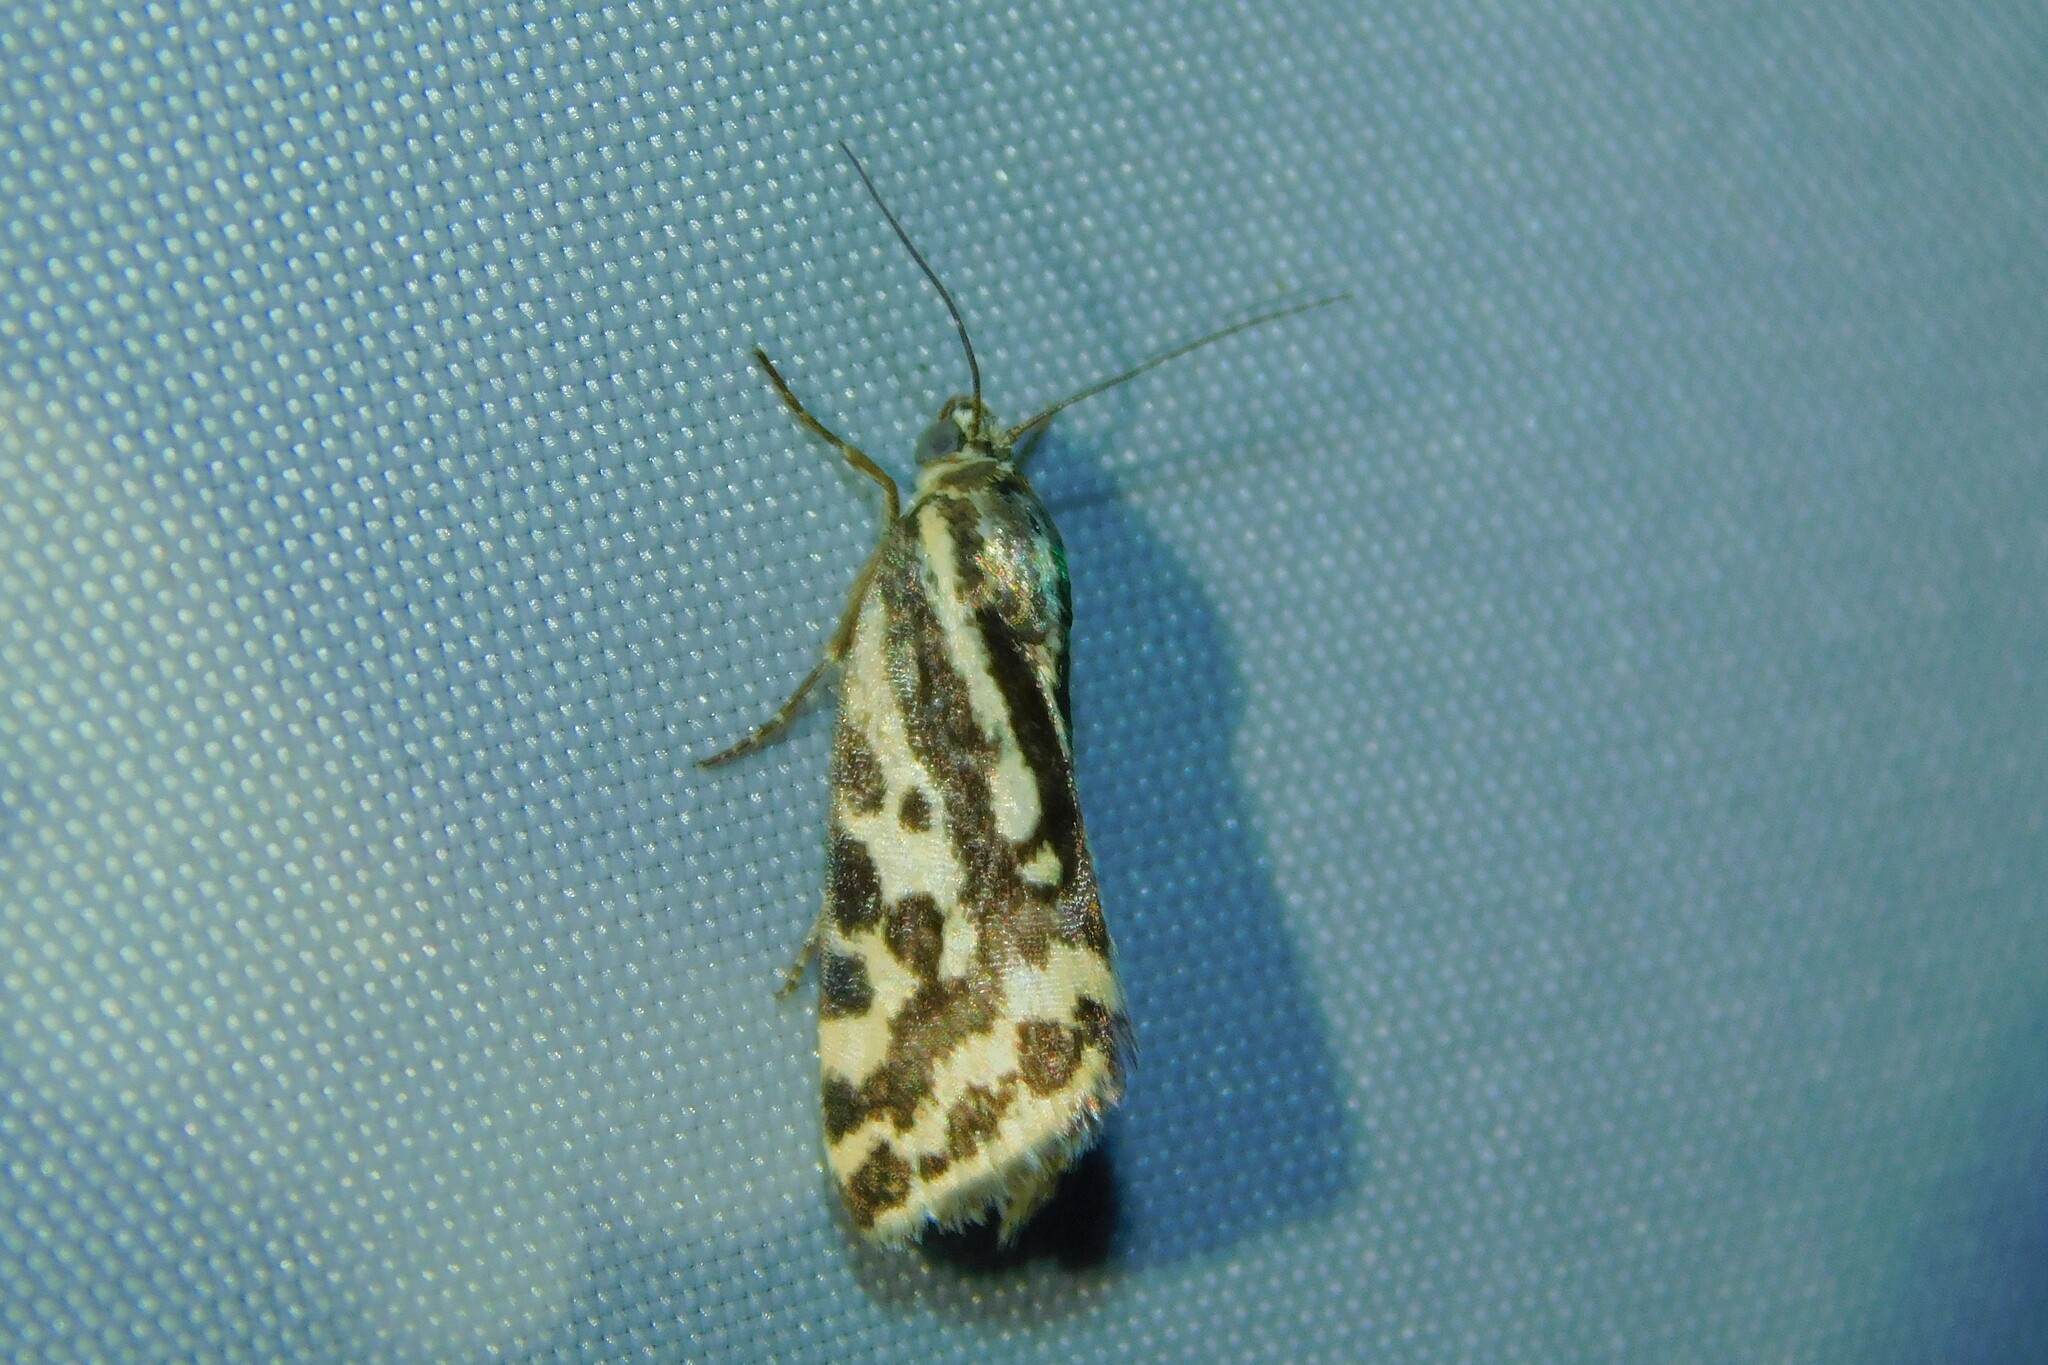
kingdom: Animalia
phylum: Arthropoda
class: Insecta
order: Lepidoptera
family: Noctuidae
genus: Acontia
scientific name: Acontia trabealis
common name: Spotted sulphur
